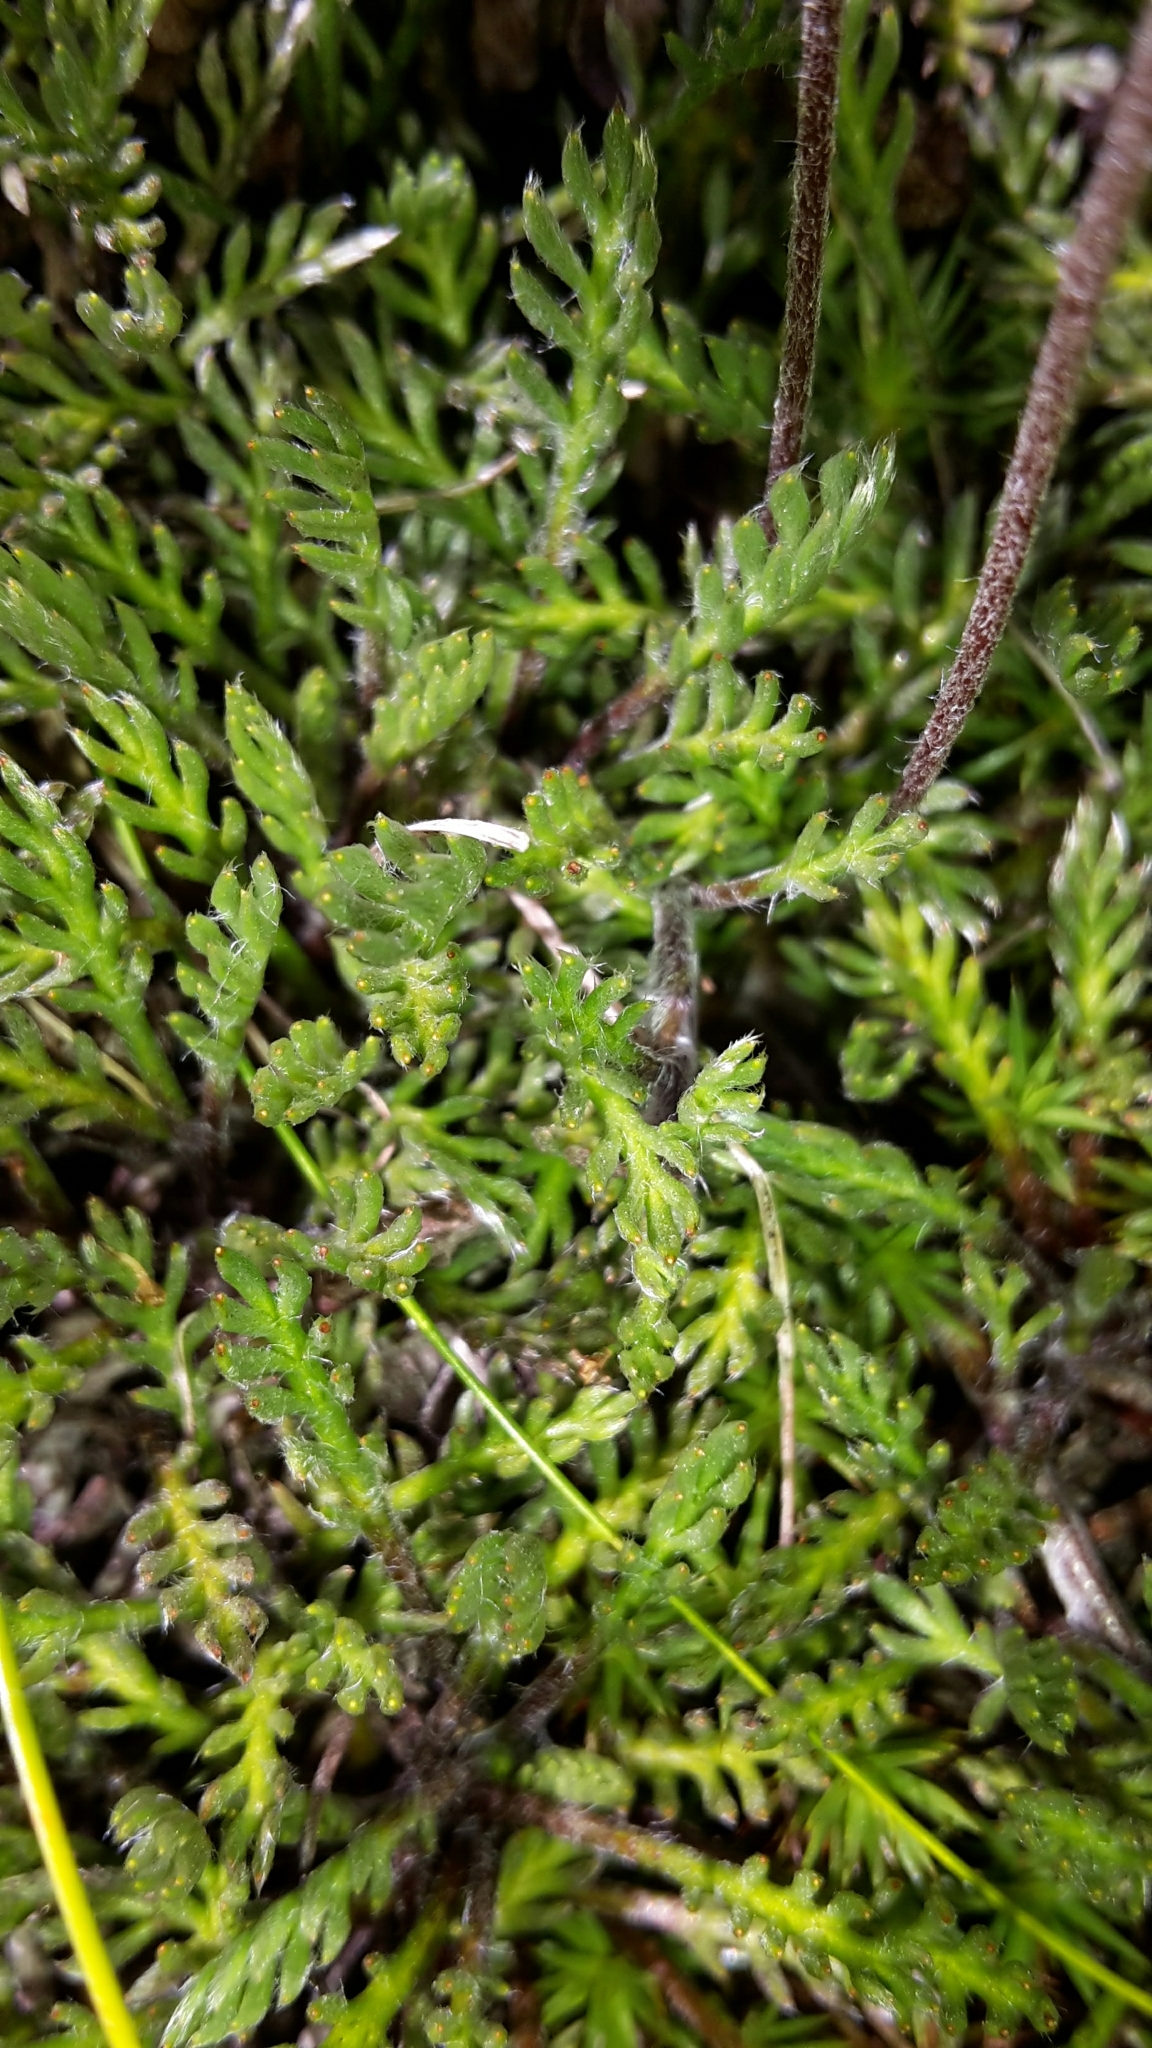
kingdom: Plantae
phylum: Tracheophyta
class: Magnoliopsida
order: Asterales
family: Asteraceae
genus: Leptinella
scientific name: Leptinella pectinata
